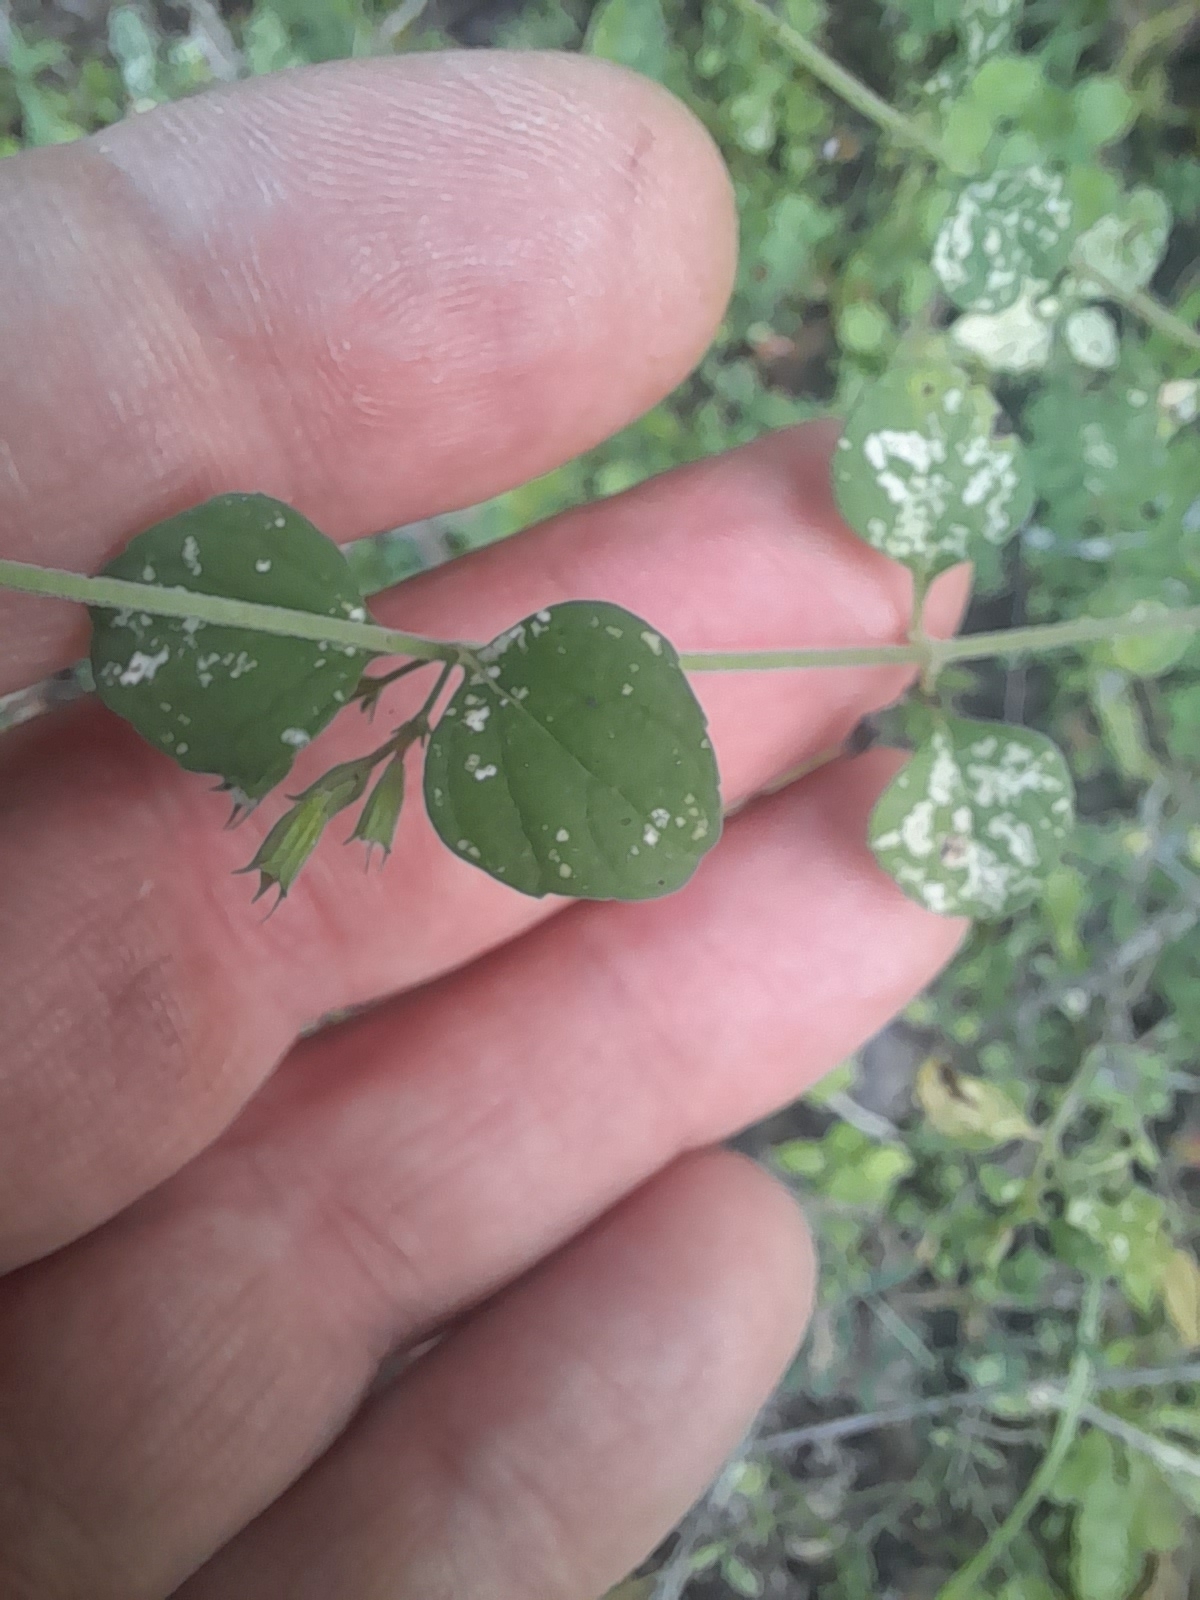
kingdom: Plantae
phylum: Tracheophyta
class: Magnoliopsida
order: Lamiales
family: Lamiaceae
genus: Clinopodium
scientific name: Clinopodium nepeta
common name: Lesser calamint
